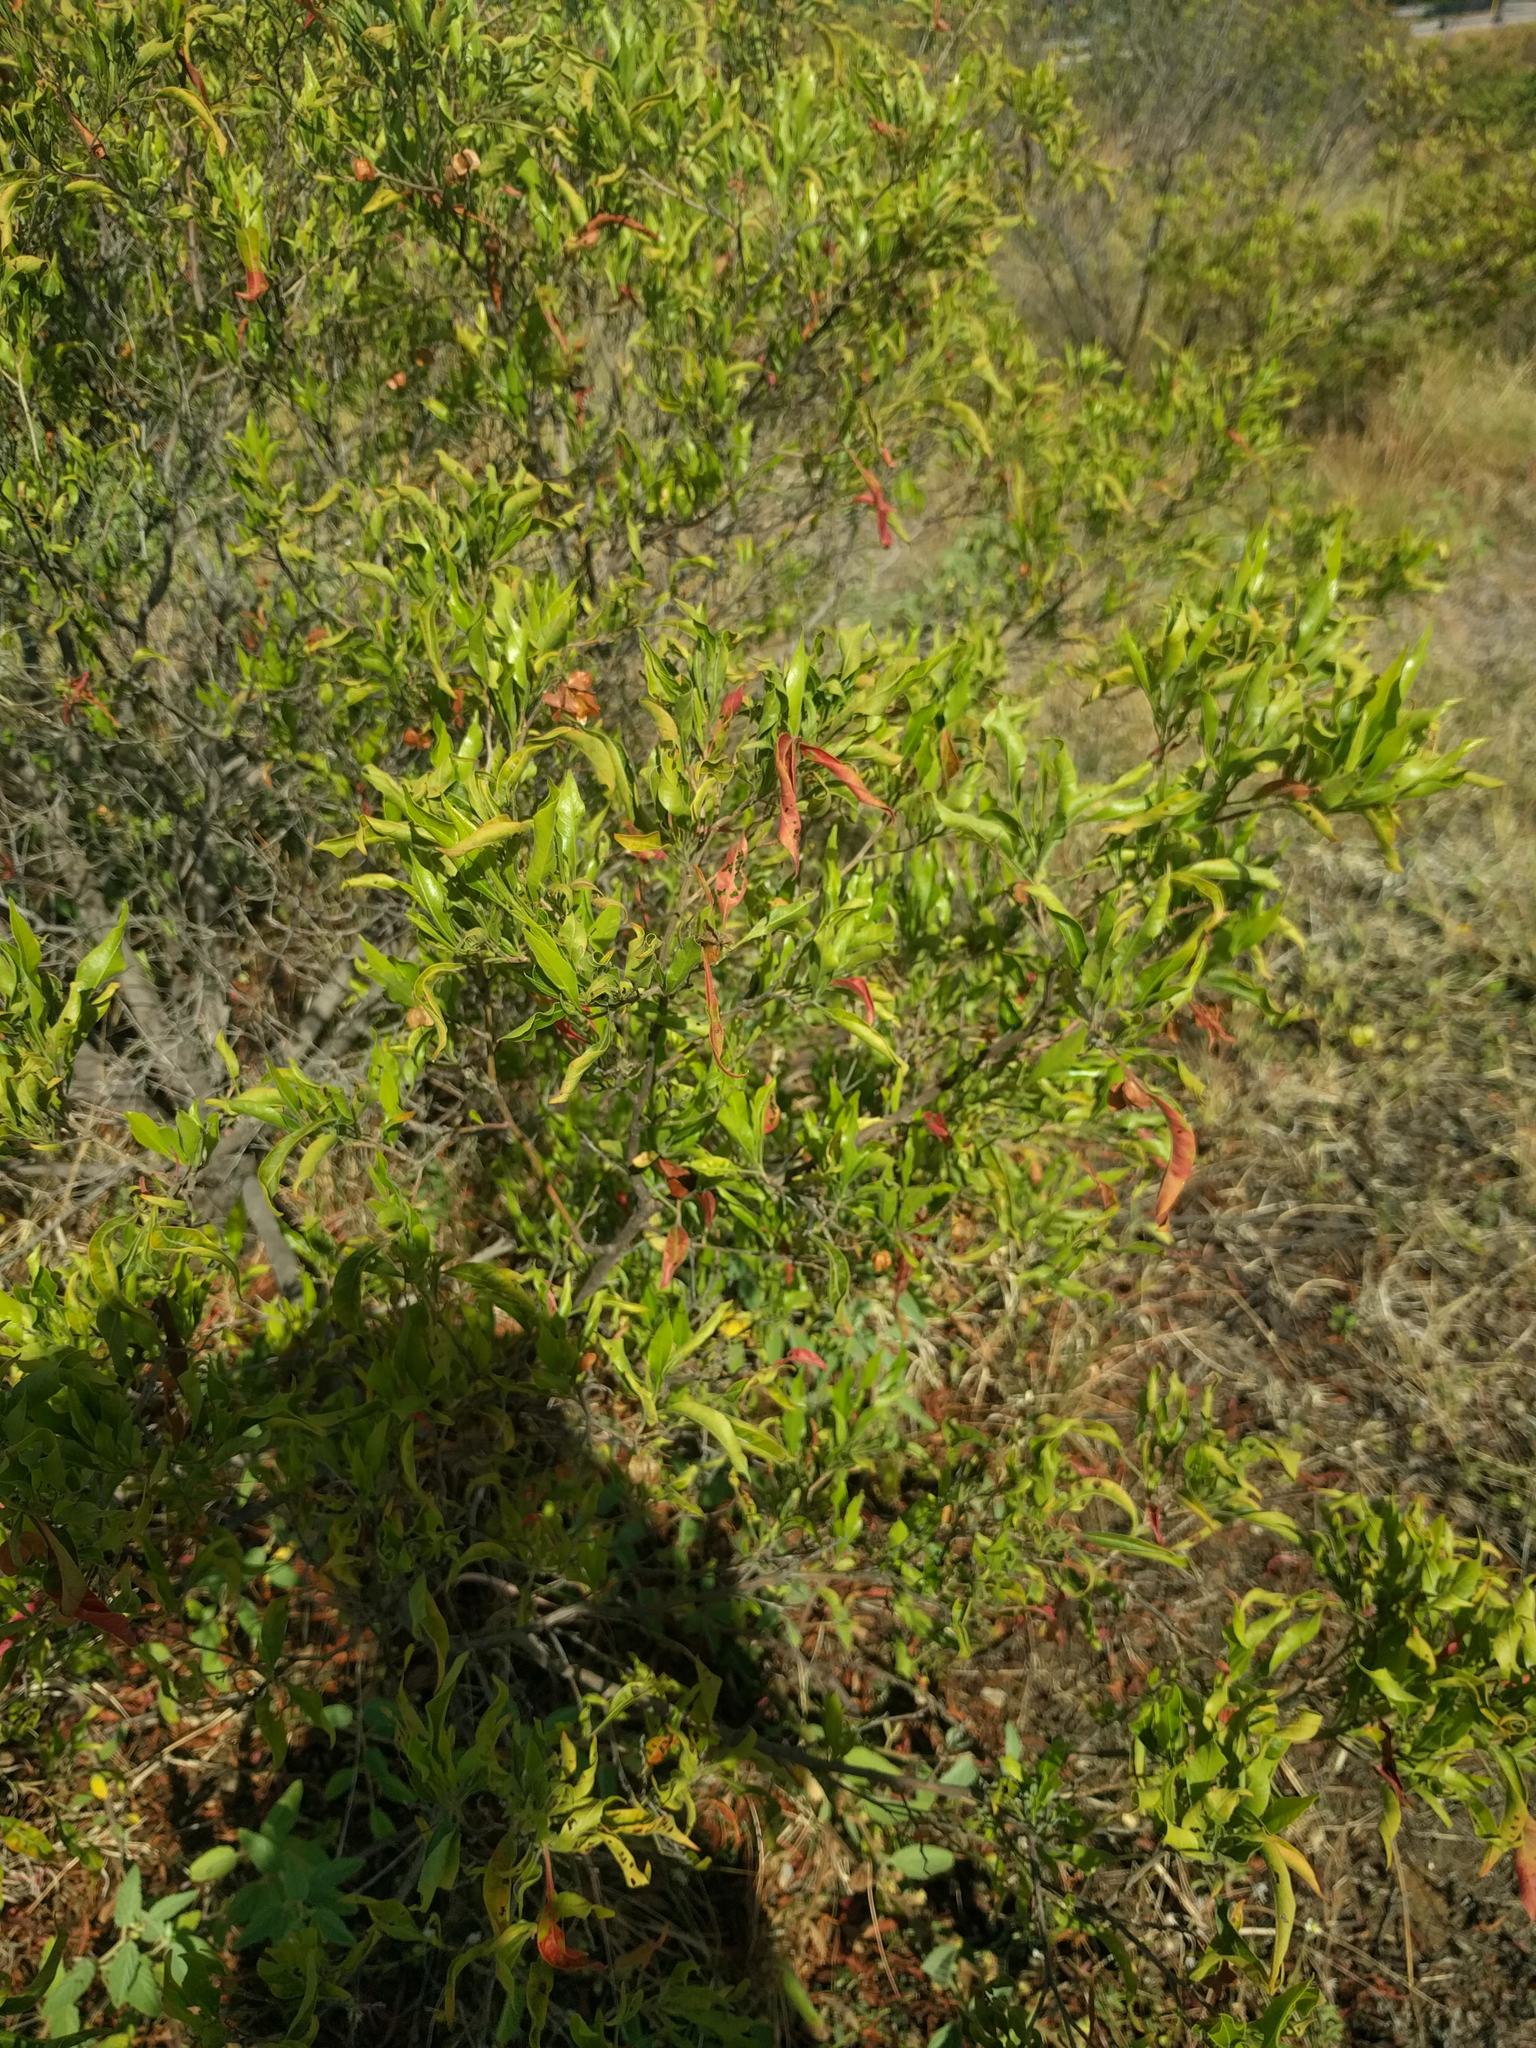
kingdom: Plantae
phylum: Tracheophyta
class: Magnoliopsida
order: Sapindales
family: Sapindaceae
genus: Dodonaea
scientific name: Dodonaea viscosa
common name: Hopbush
